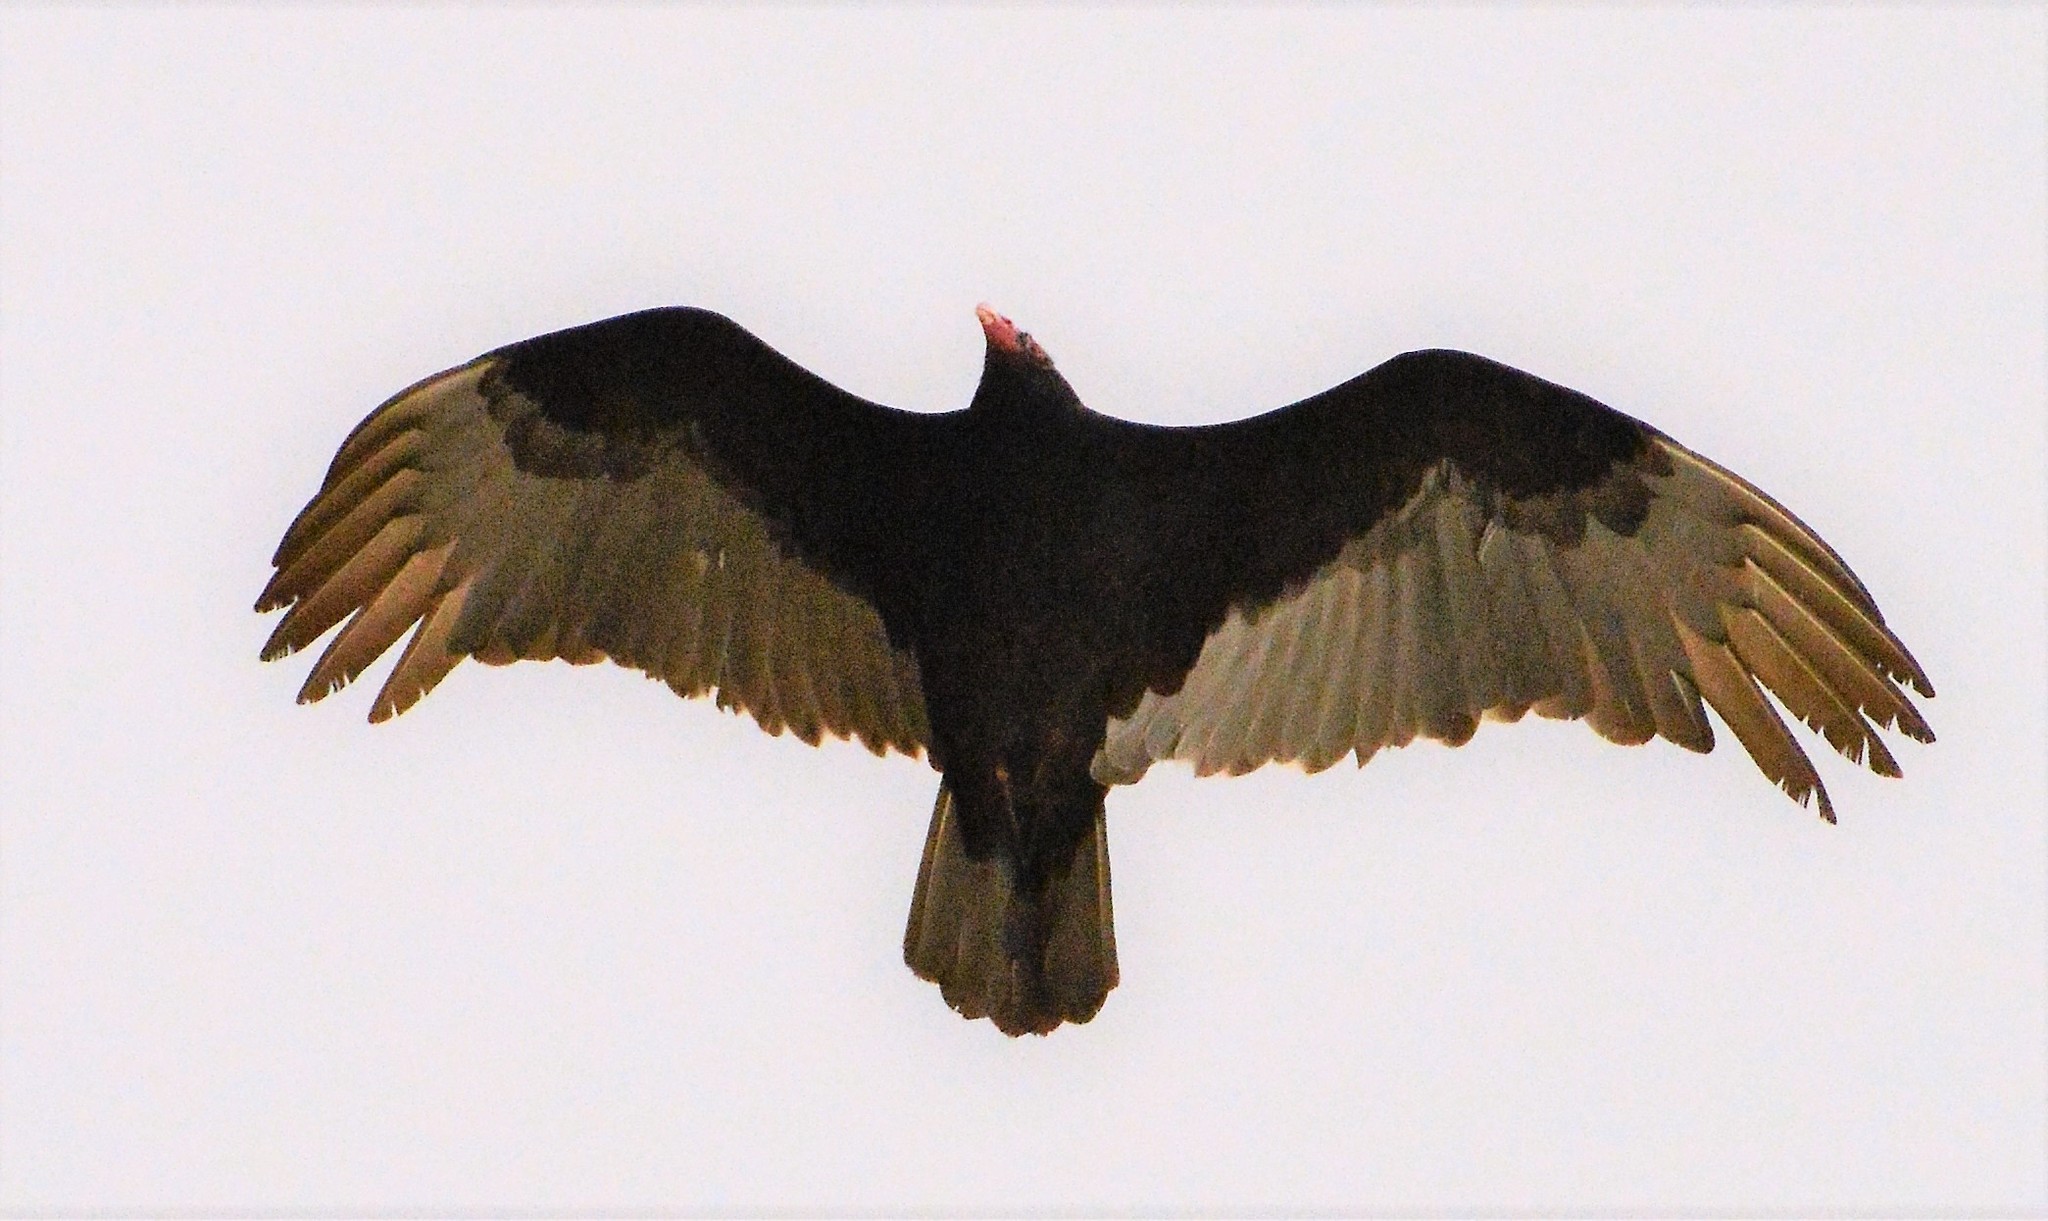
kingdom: Animalia
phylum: Chordata
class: Aves
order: Accipitriformes
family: Cathartidae
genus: Cathartes
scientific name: Cathartes aura
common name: Turkey vulture
